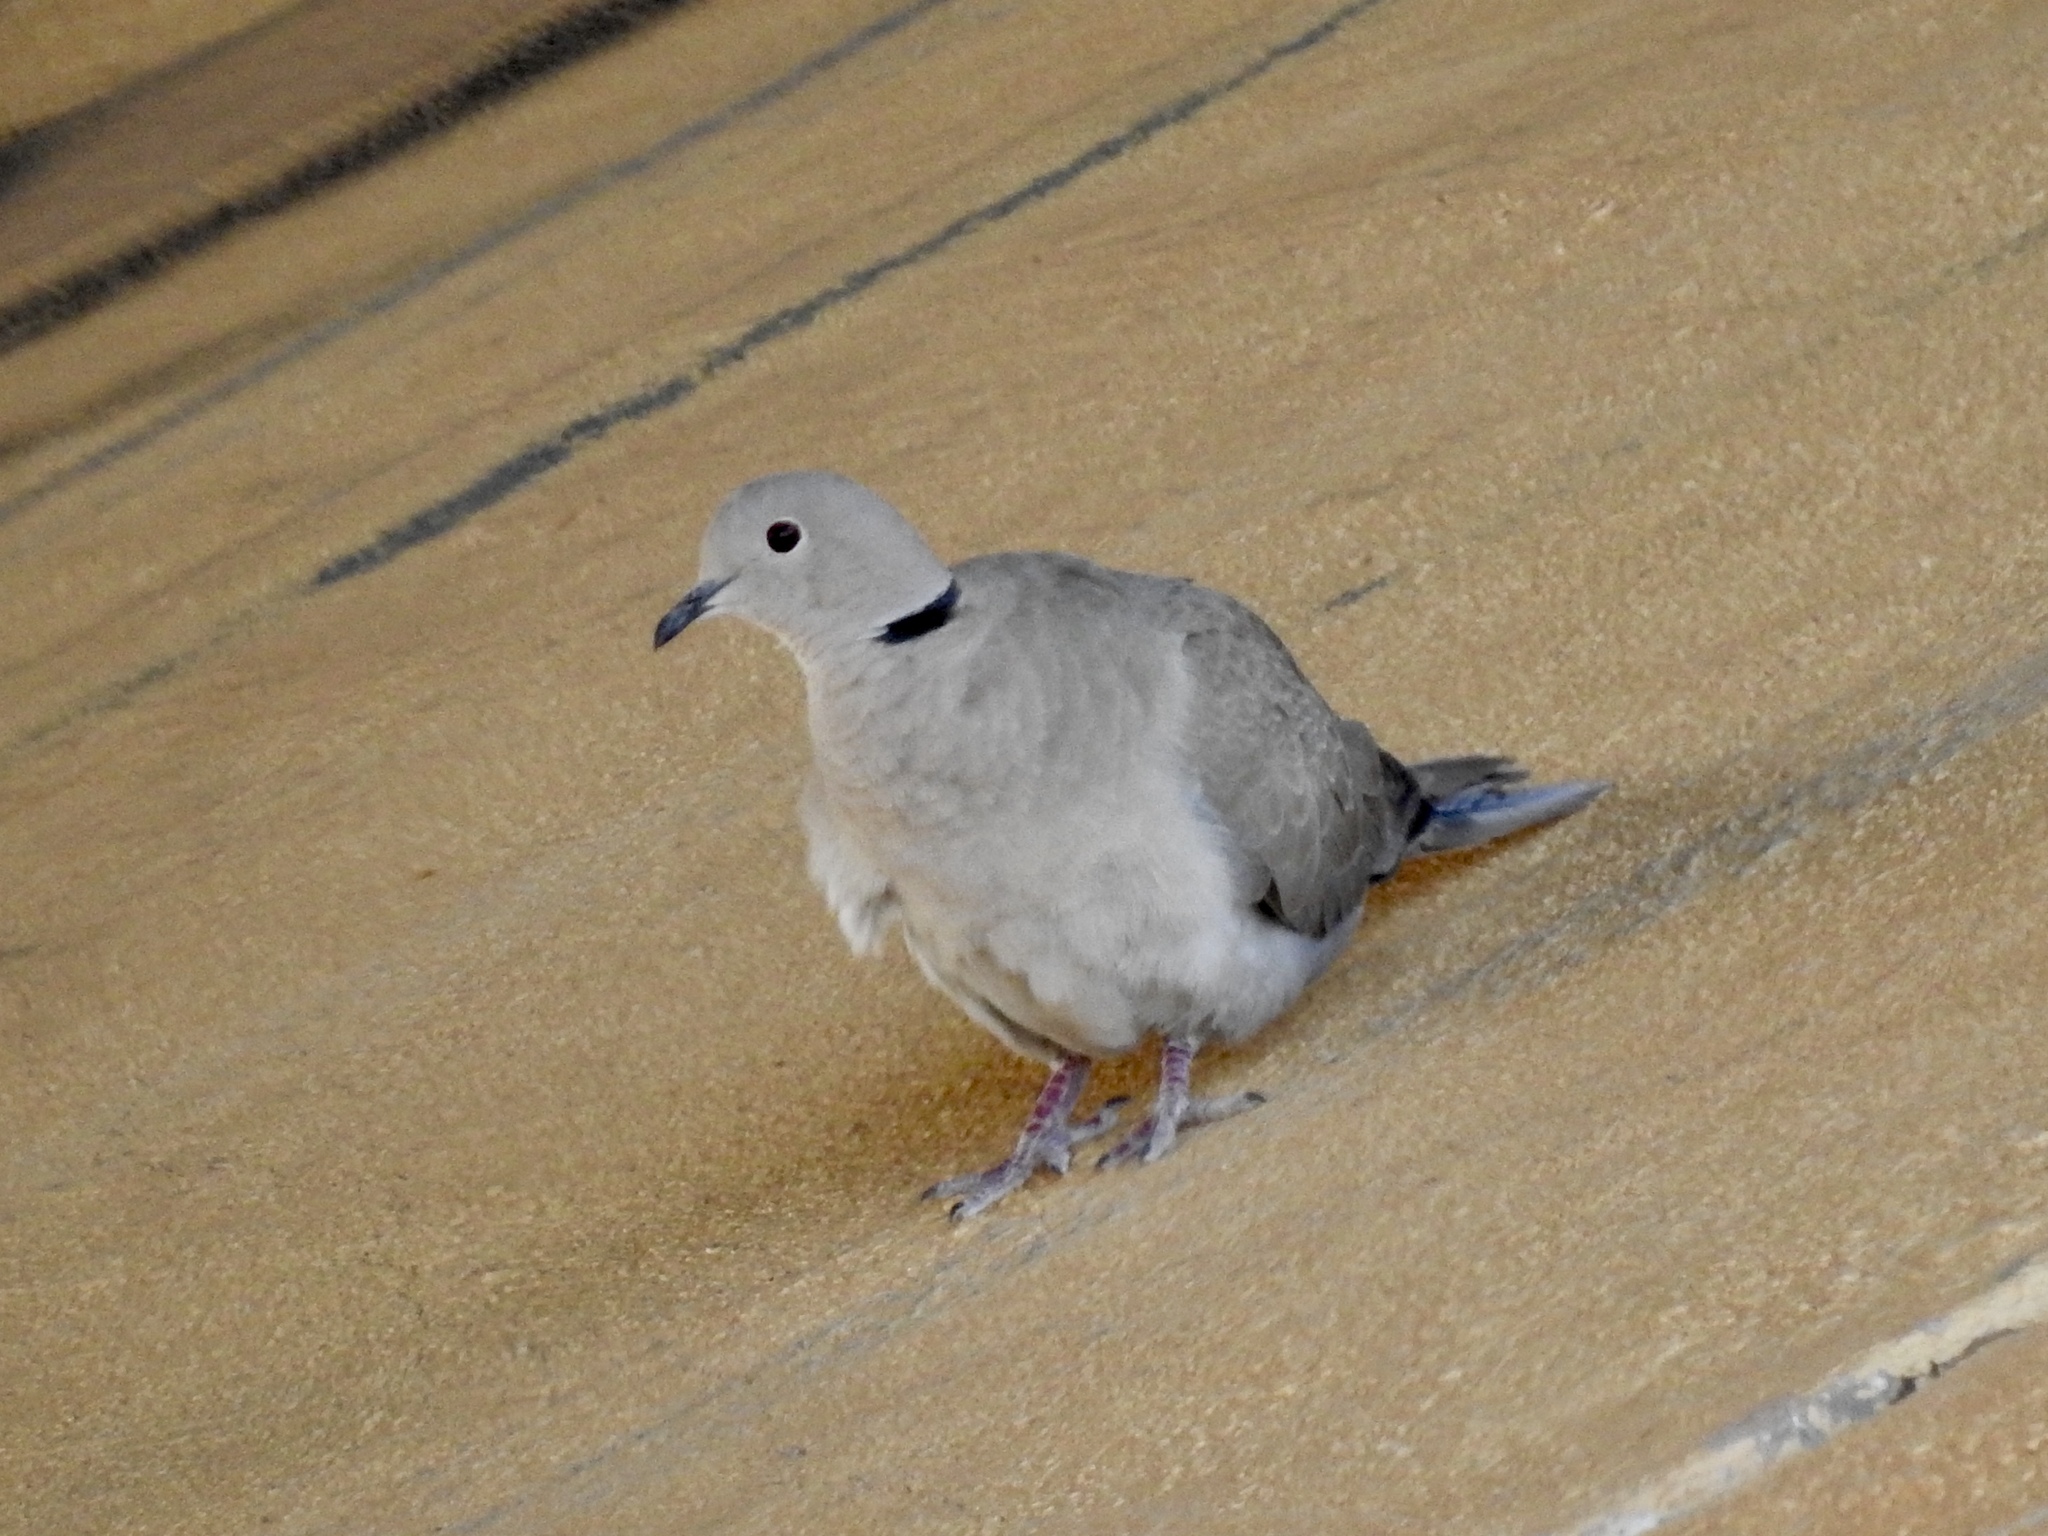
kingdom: Animalia
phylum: Chordata
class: Aves
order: Columbiformes
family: Columbidae
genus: Streptopelia
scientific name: Streptopelia decaocto
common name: Eurasian collared dove
